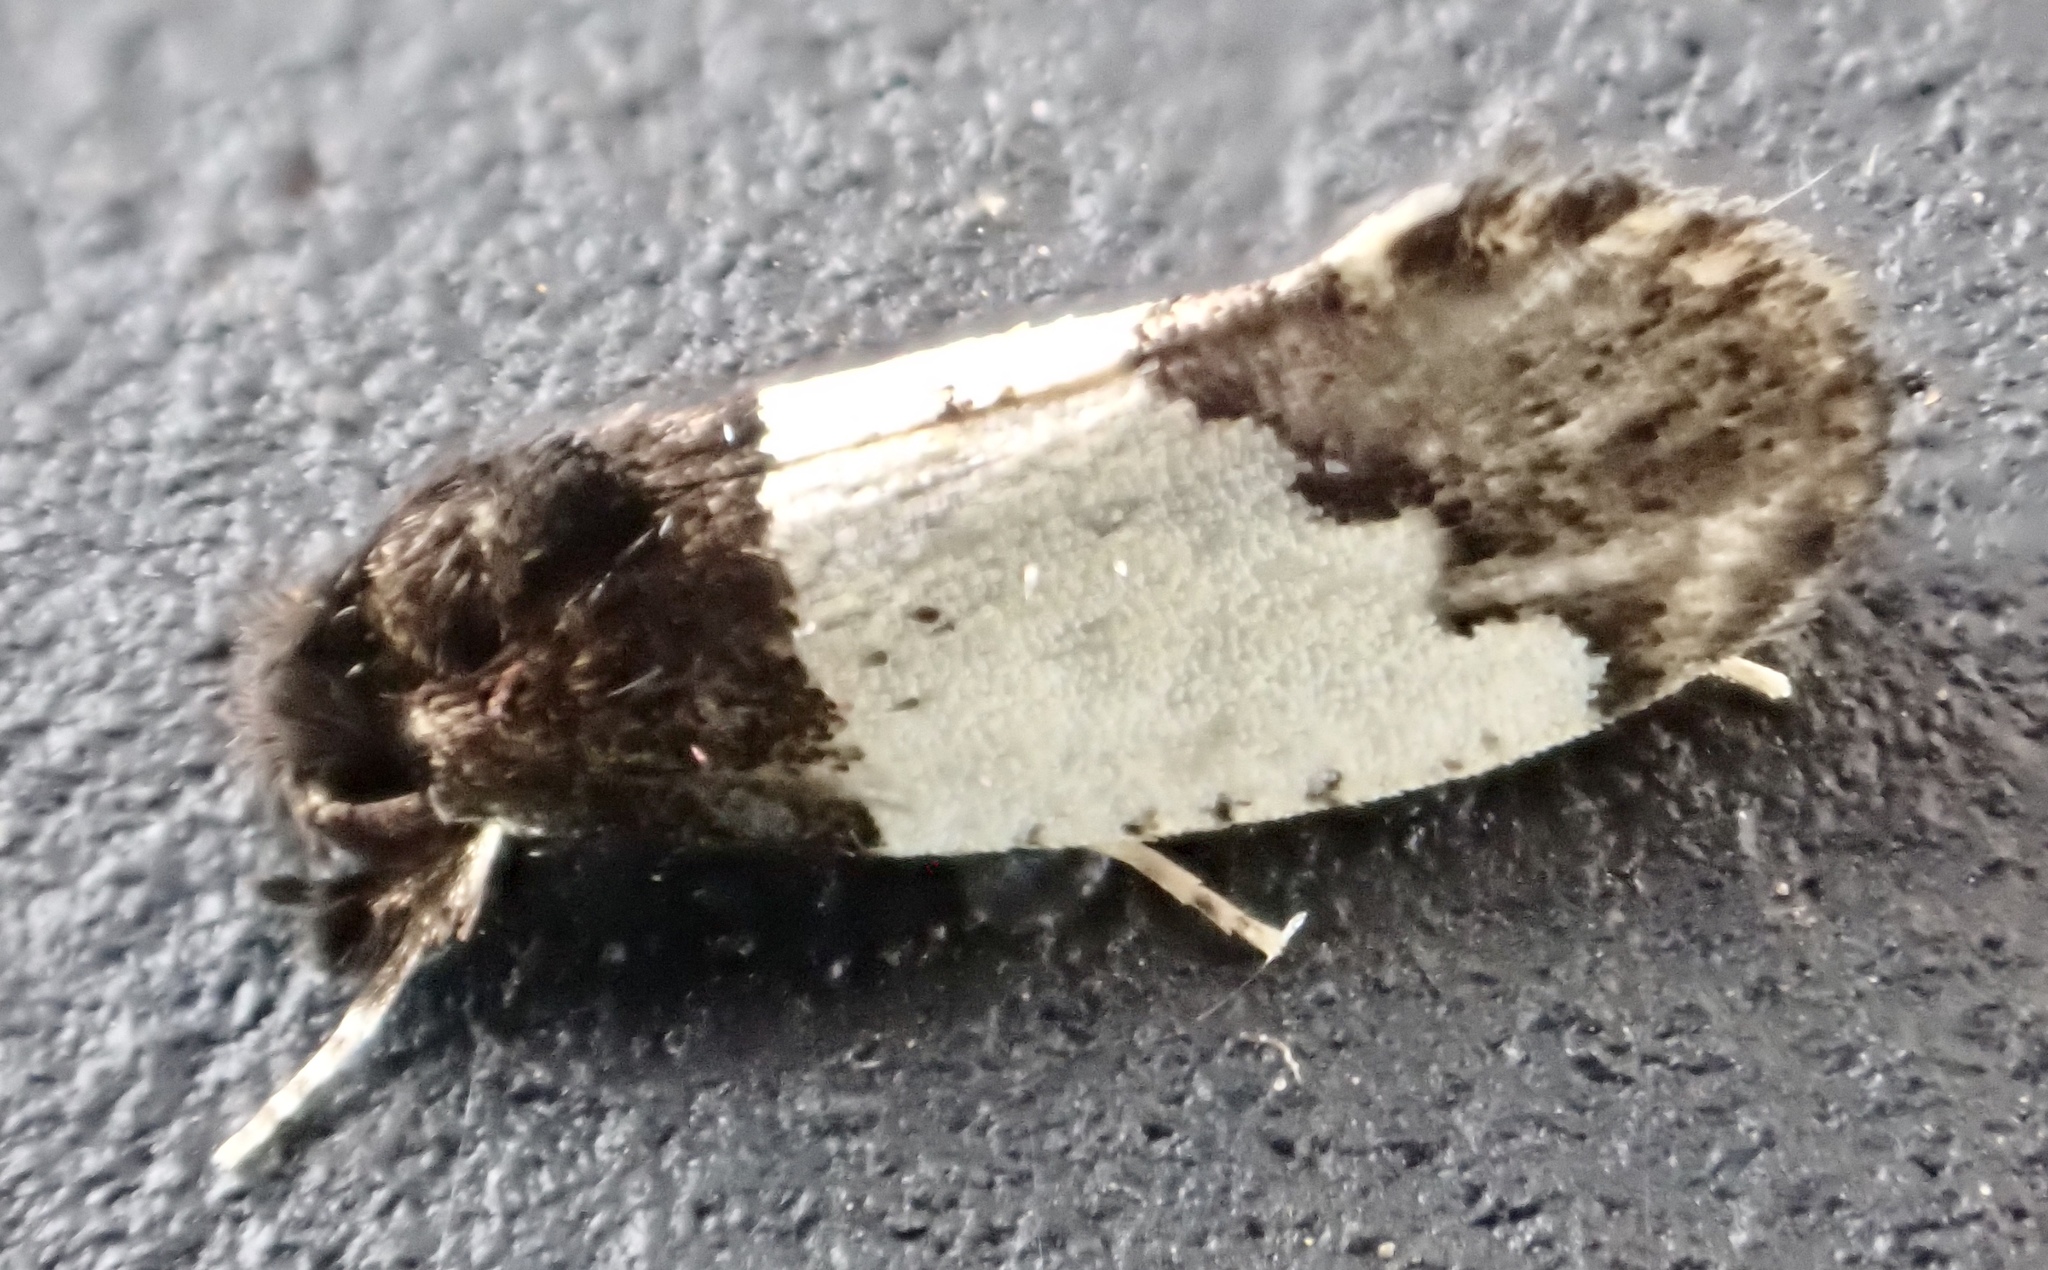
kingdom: Animalia
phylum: Arthropoda
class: Insecta
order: Lepidoptera
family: Psychidae
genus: Kearfottia
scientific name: Kearfottia albifasciella
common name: White-patched kearfottia
